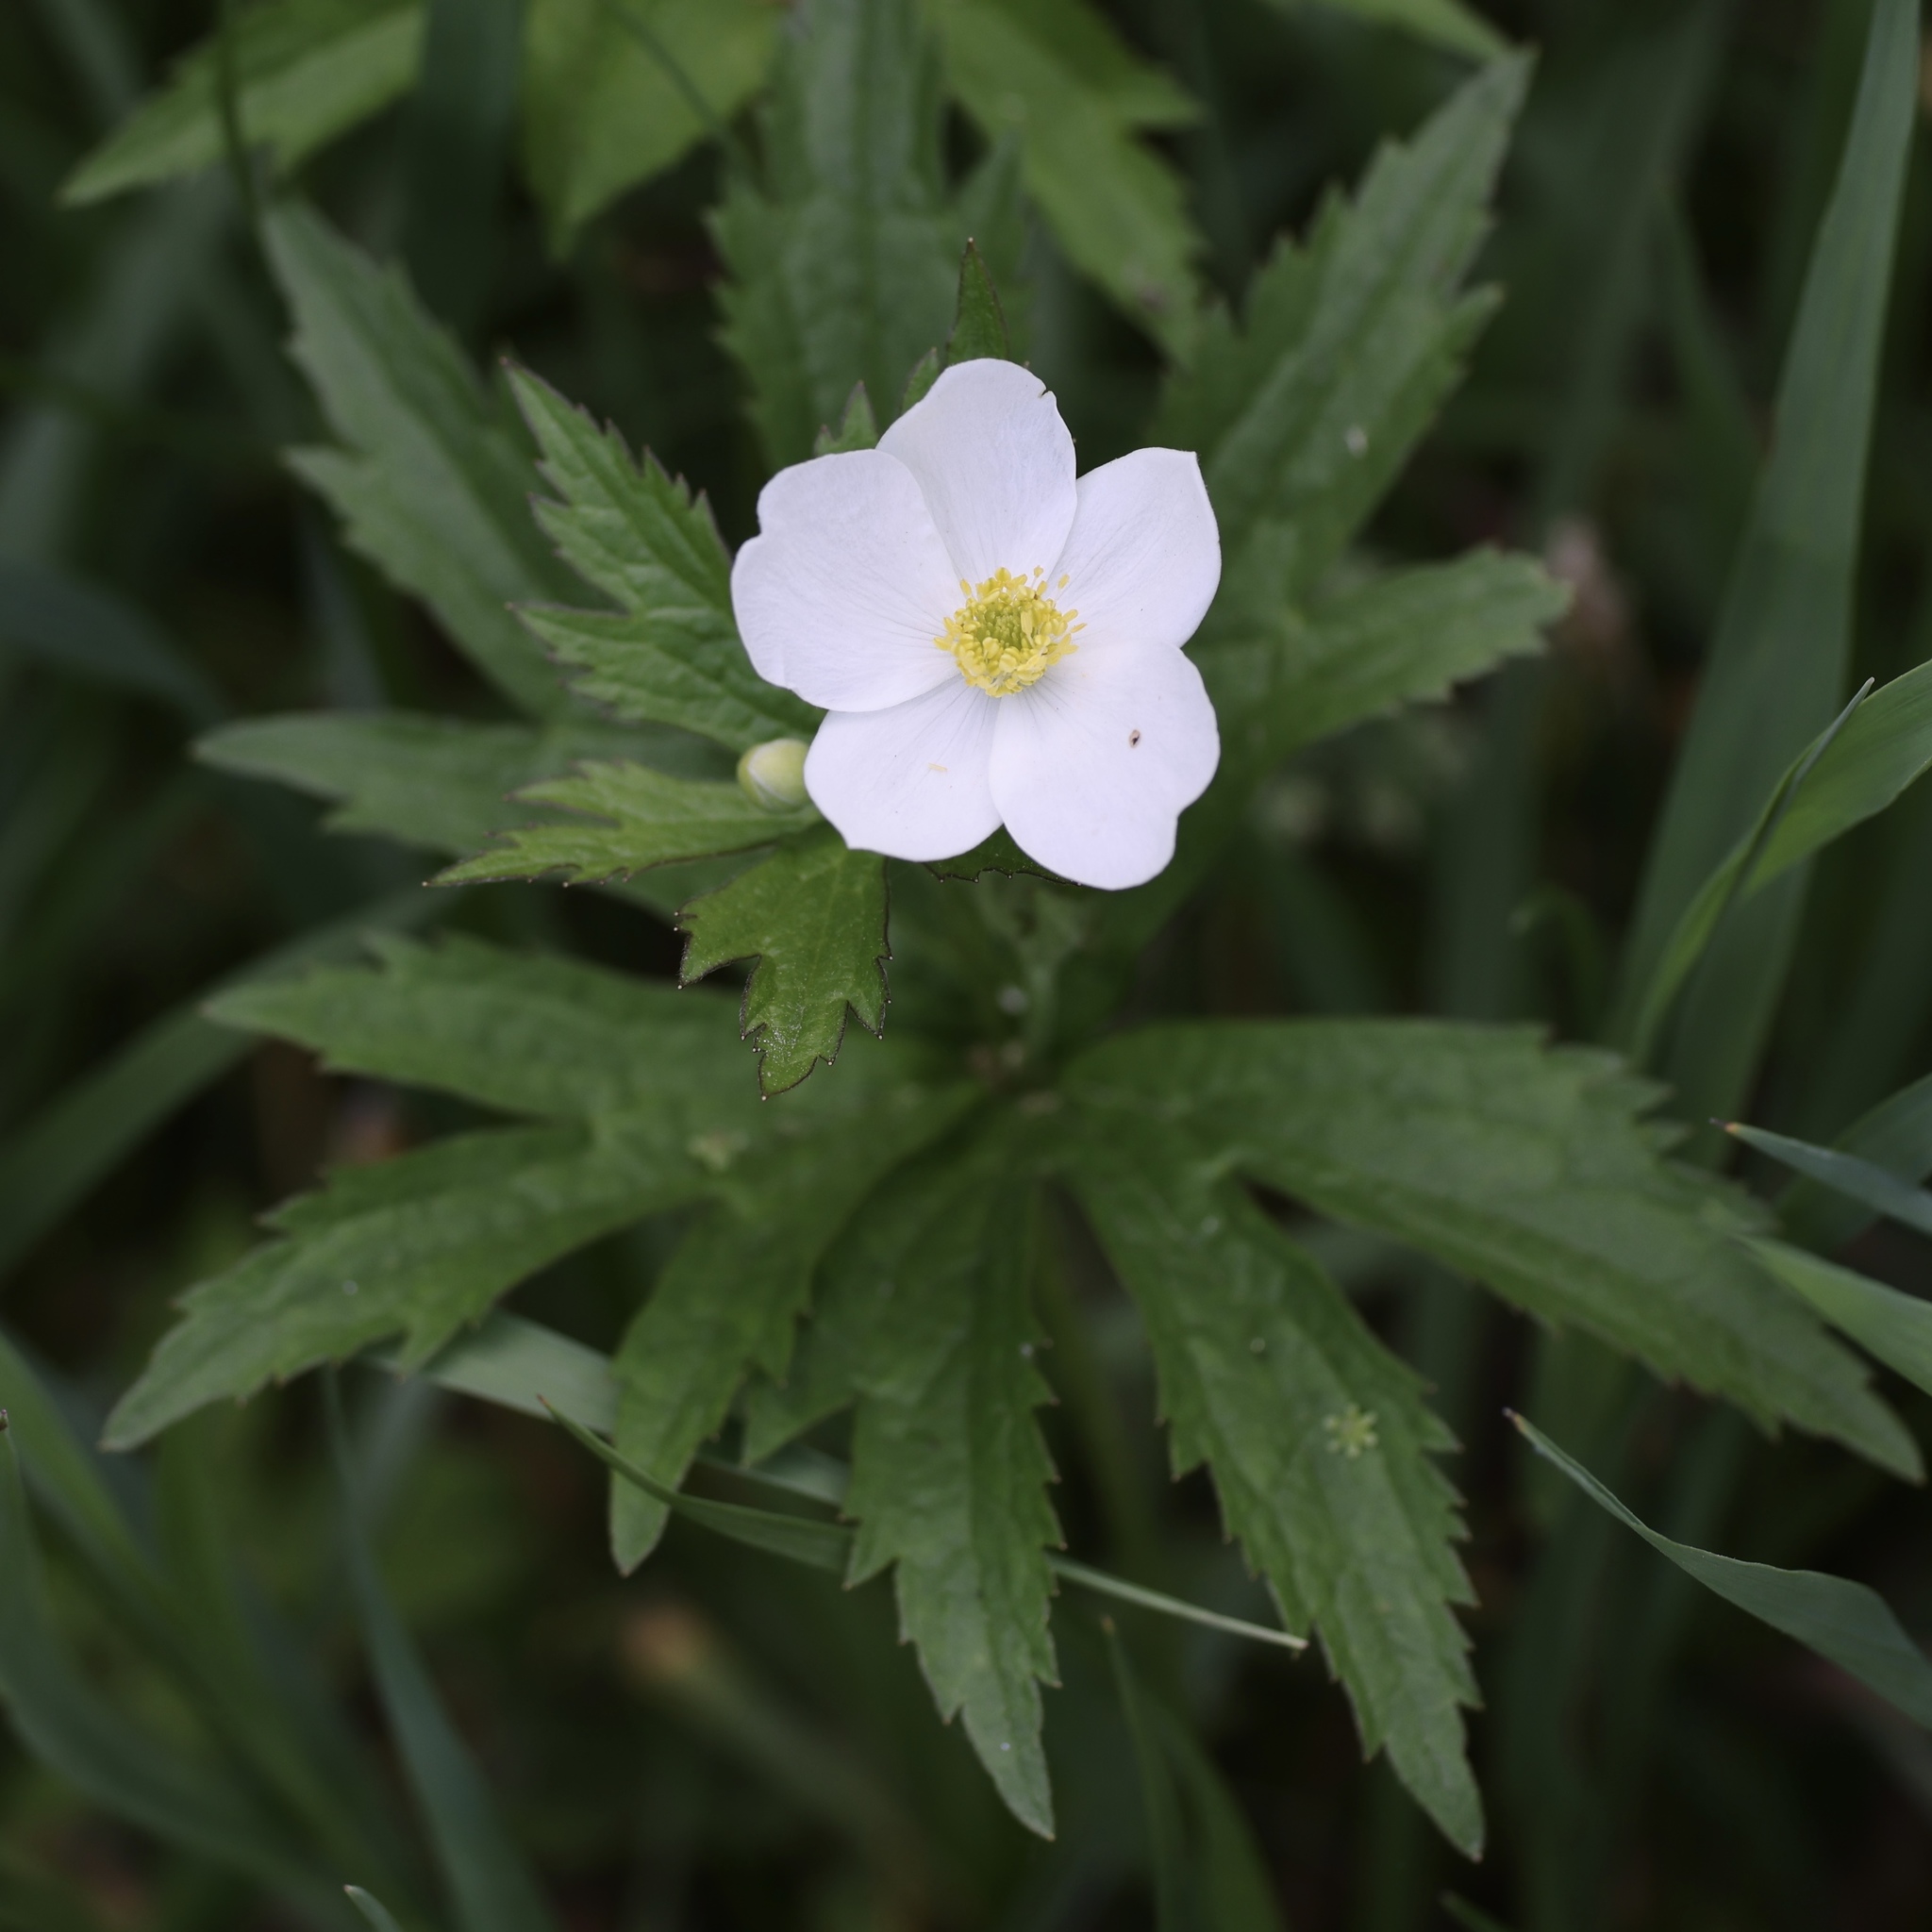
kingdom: Plantae
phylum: Tracheophyta
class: Magnoliopsida
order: Ranunculales
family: Ranunculaceae
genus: Anemonastrum
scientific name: Anemonastrum canadense
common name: Canada anemone
